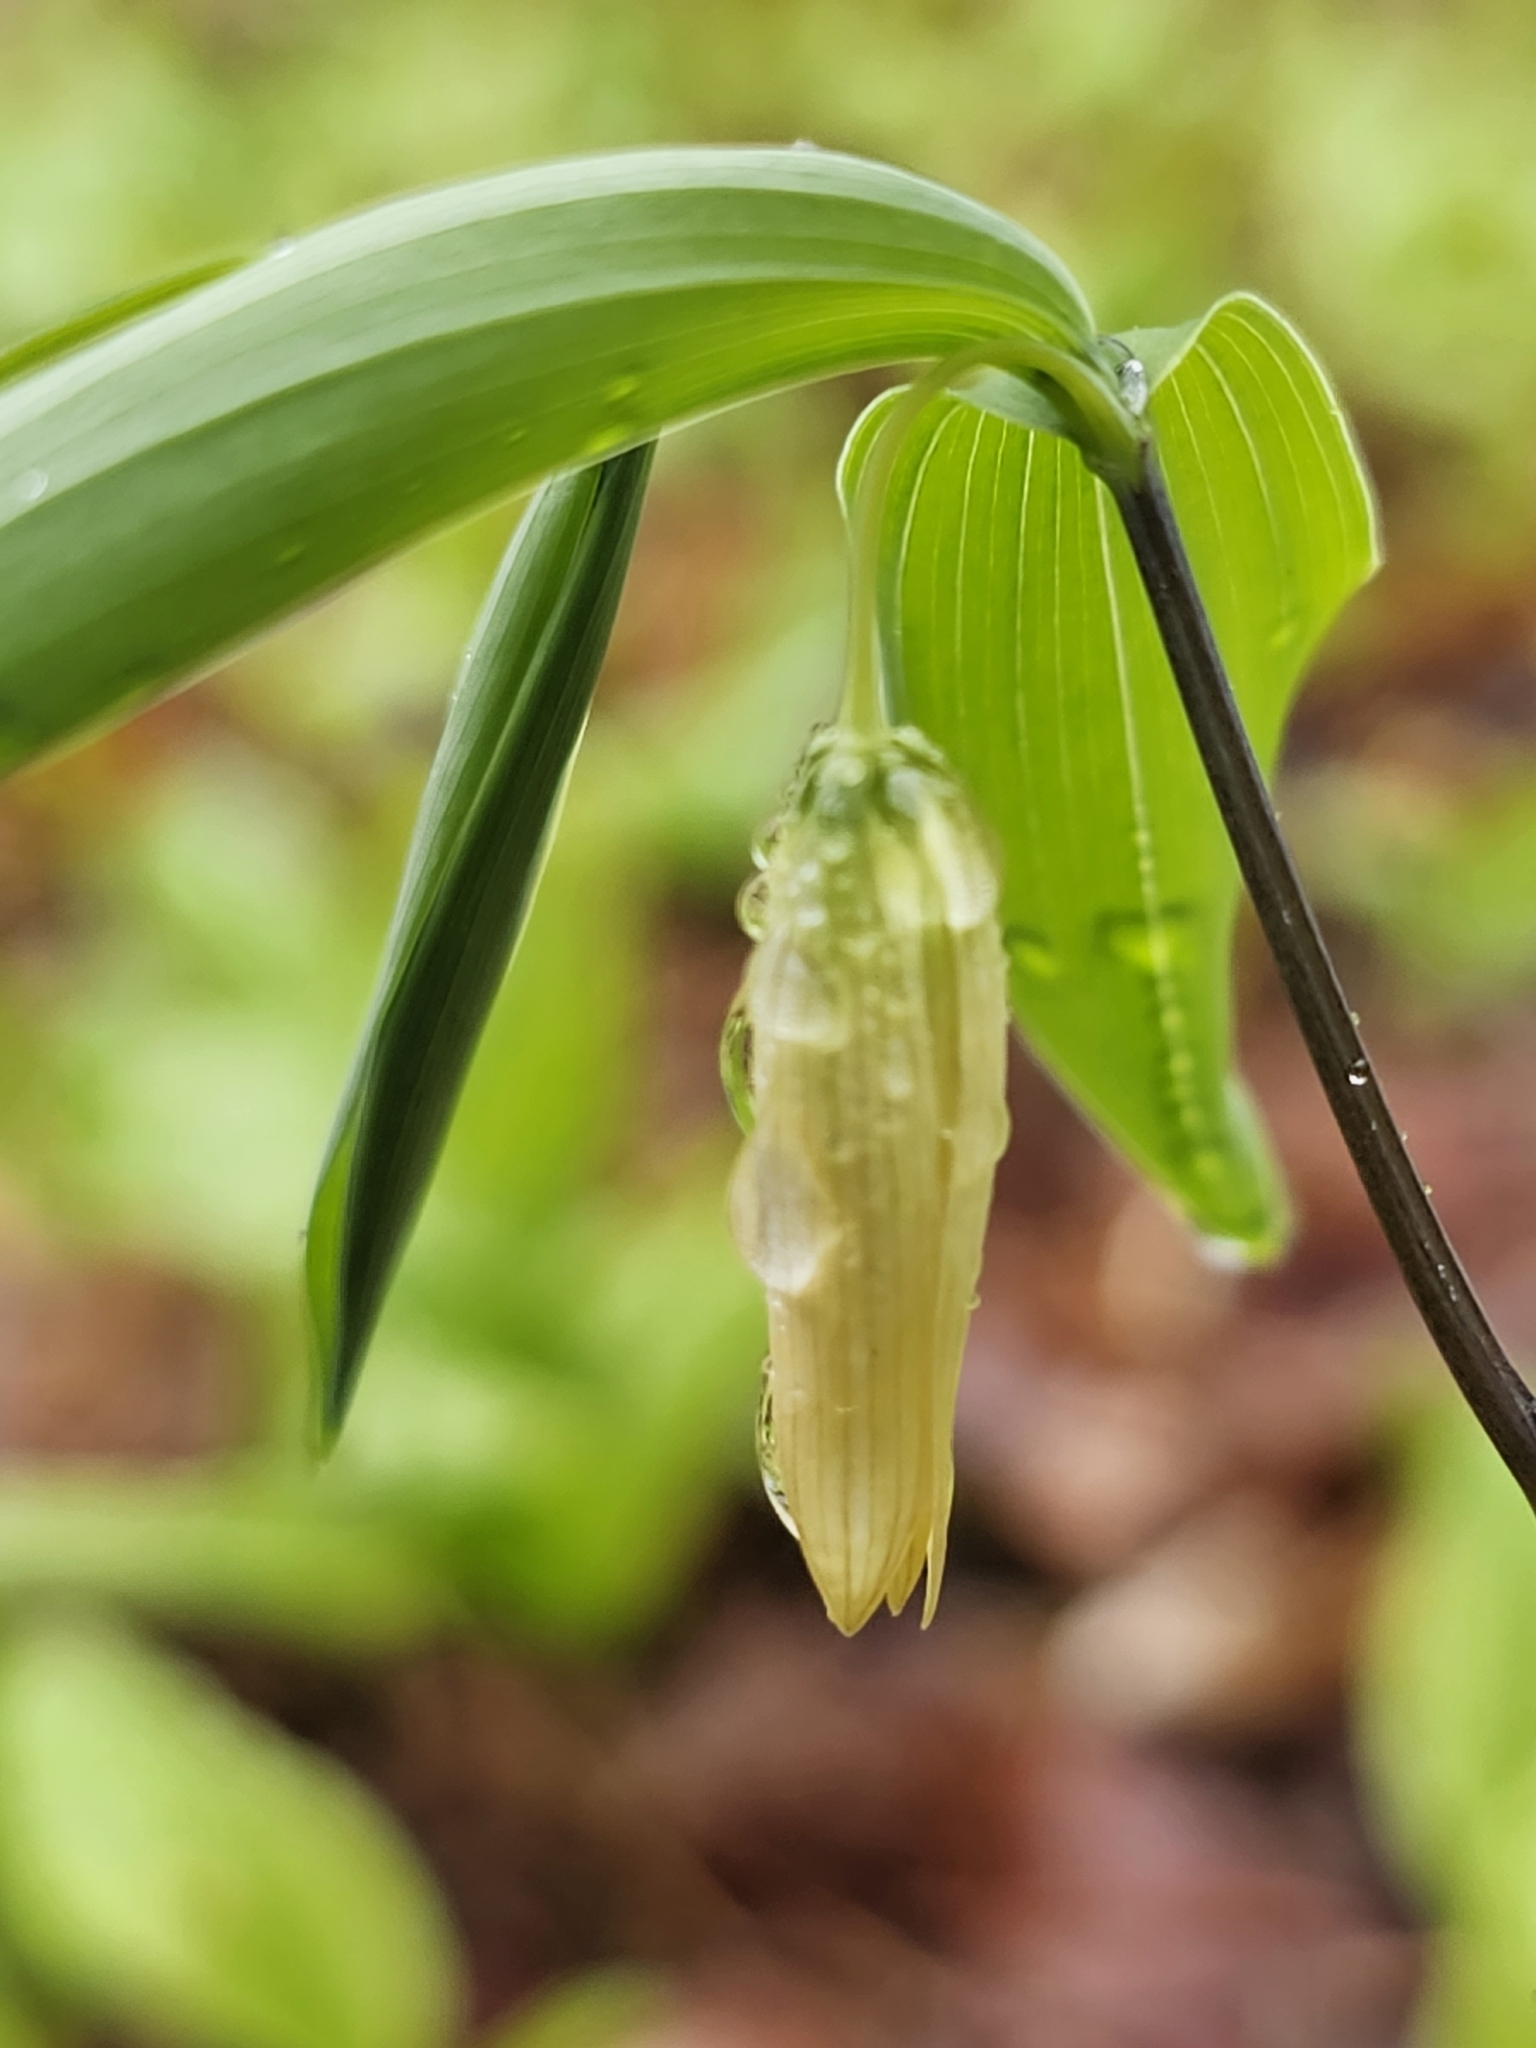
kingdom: Plantae
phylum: Tracheophyta
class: Liliopsida
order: Liliales
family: Colchicaceae
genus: Uvularia
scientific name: Uvularia sessilifolia
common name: Straw-lily
